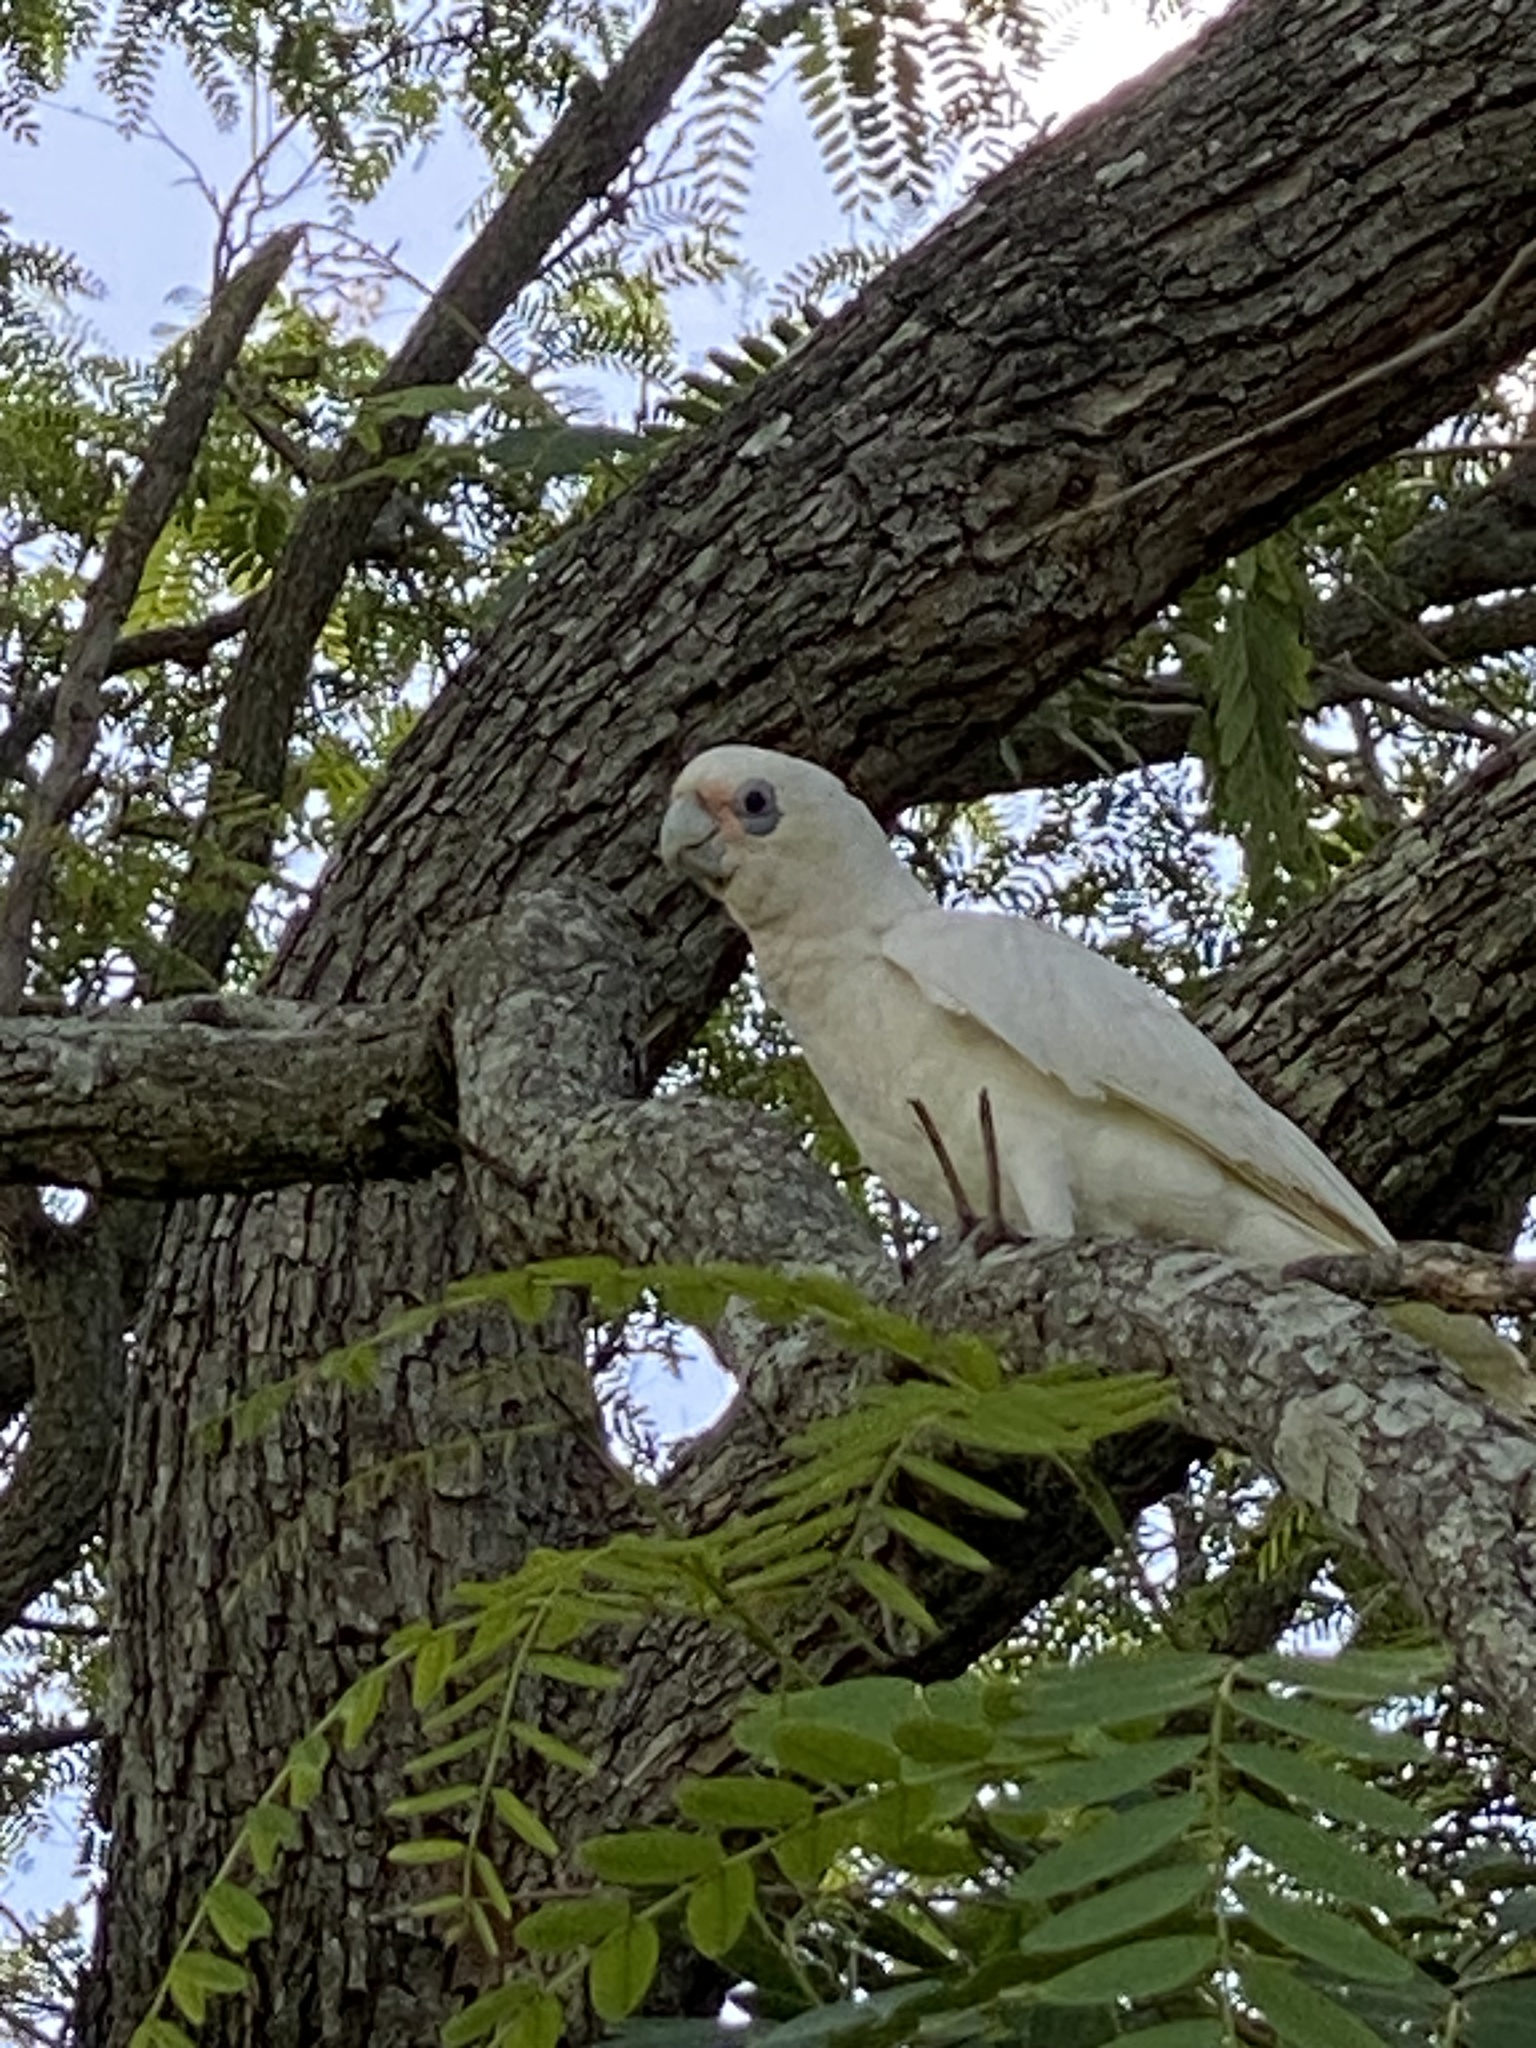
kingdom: Animalia
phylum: Chordata
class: Aves
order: Psittaciformes
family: Psittacidae
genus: Cacatua
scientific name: Cacatua sanguinea
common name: Little corella
